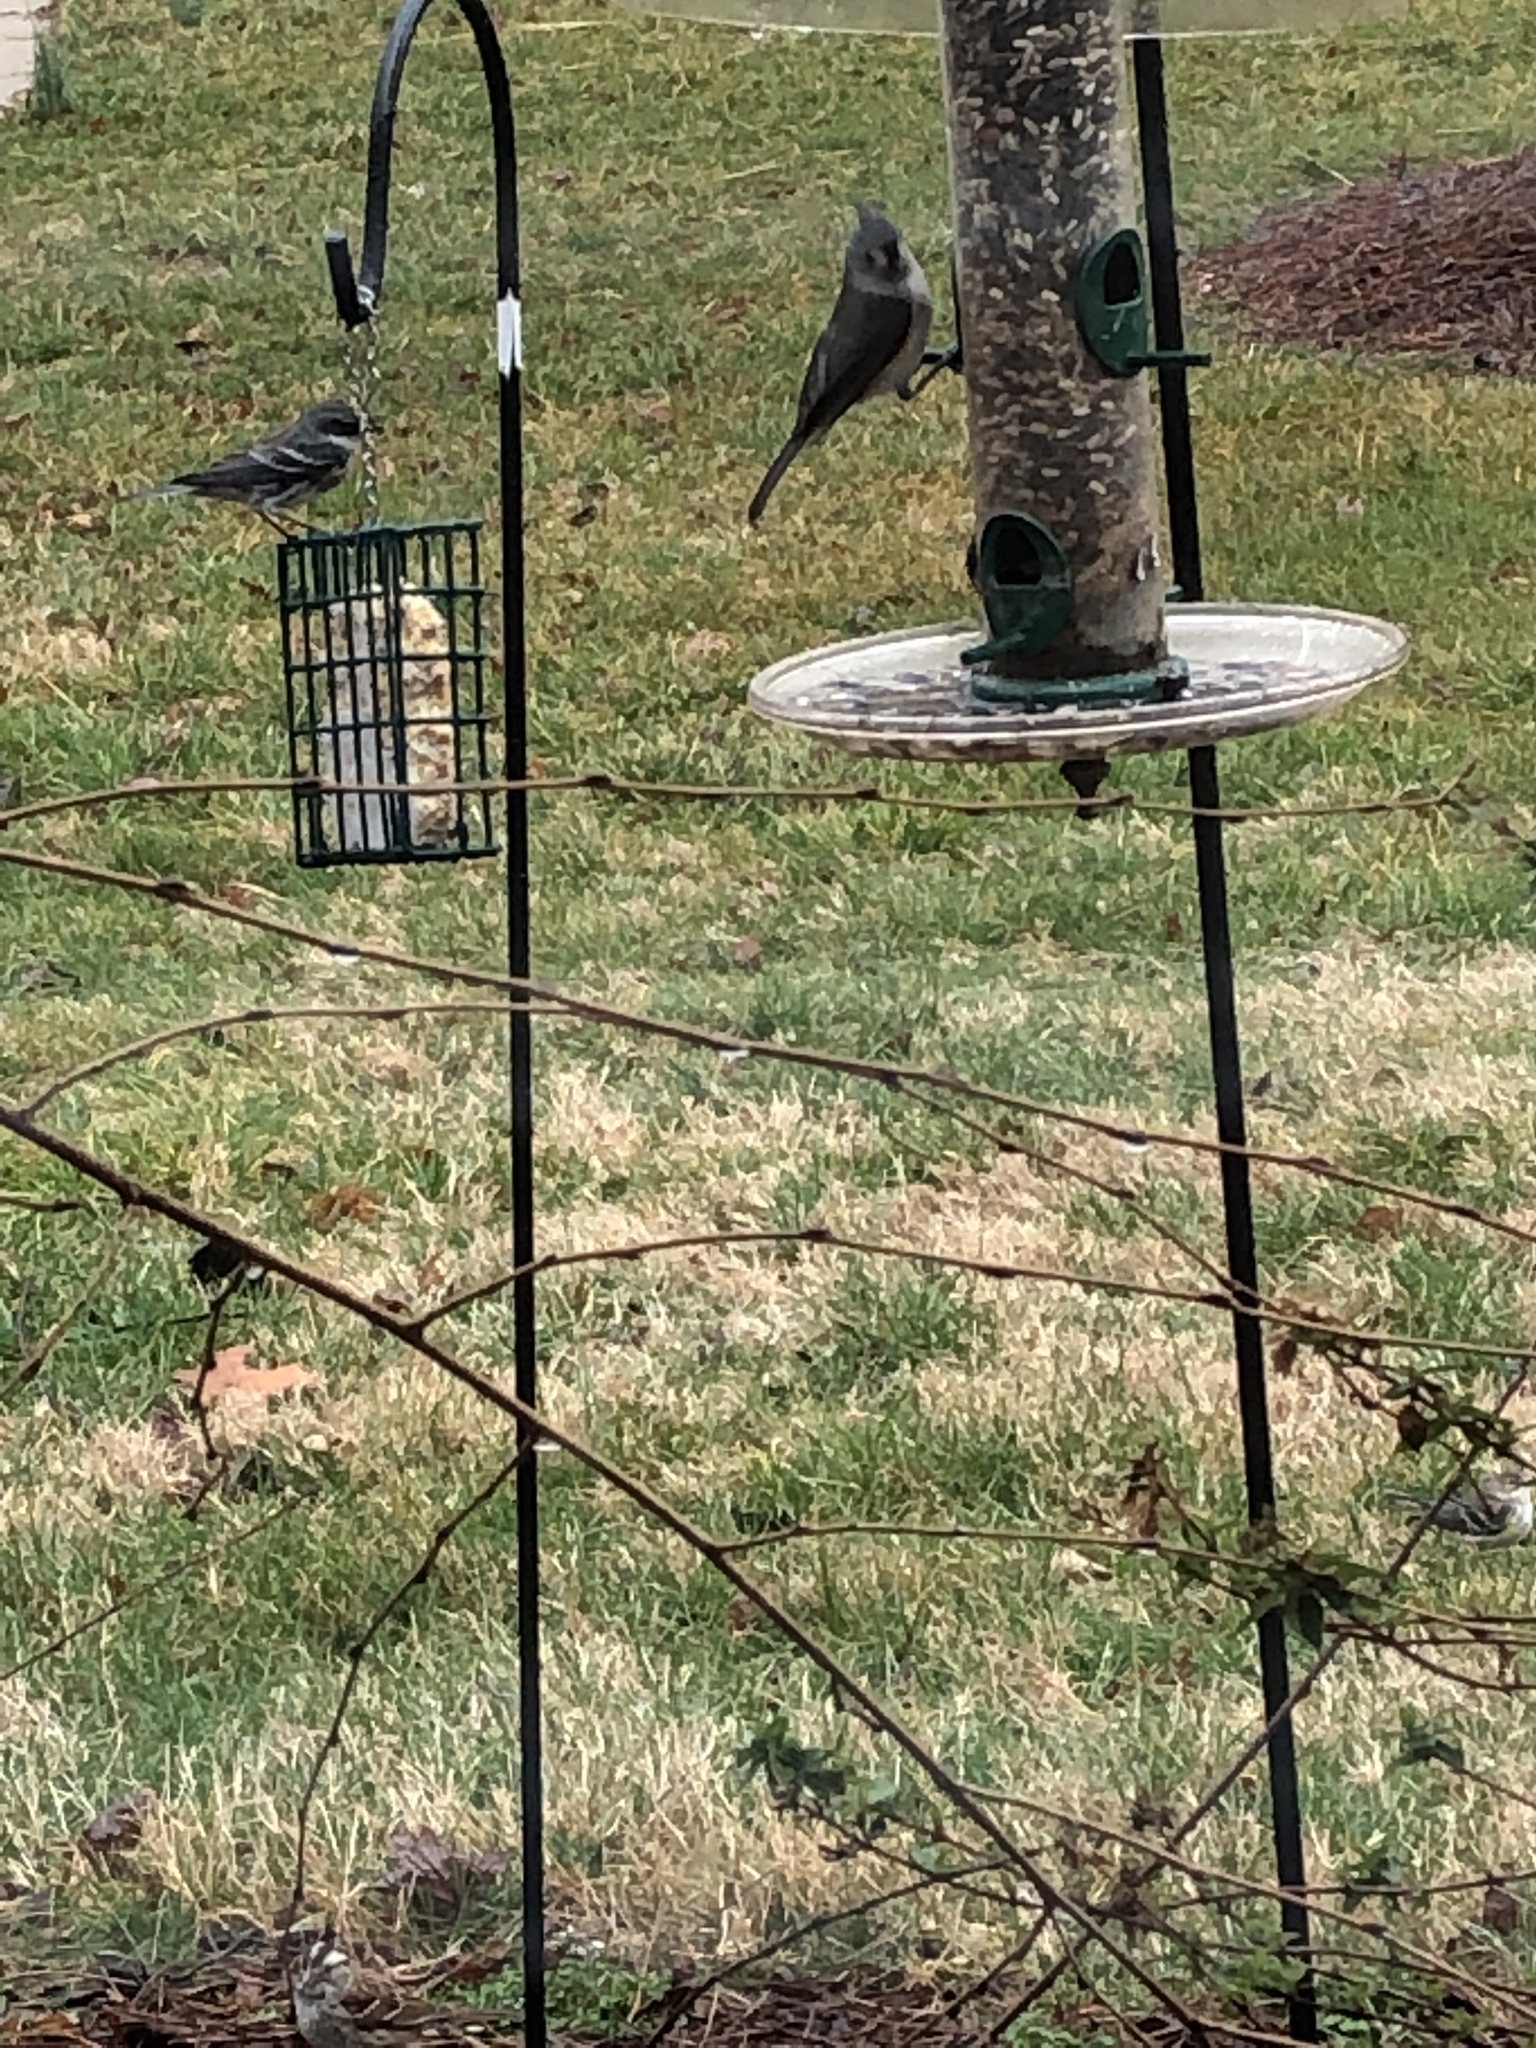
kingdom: Animalia
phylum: Chordata
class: Aves
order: Passeriformes
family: Paridae
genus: Baeolophus
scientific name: Baeolophus bicolor
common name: Tufted titmouse
